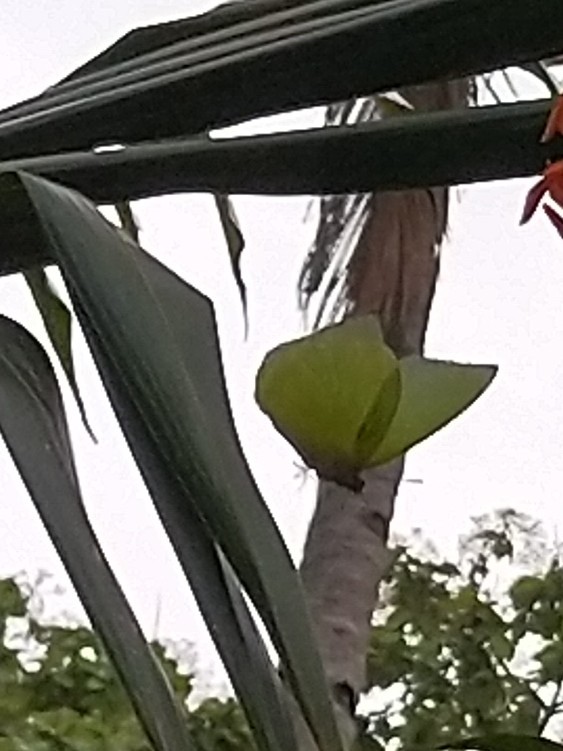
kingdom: Animalia
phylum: Arthropoda
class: Insecta
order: Lepidoptera
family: Pieridae
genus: Catopsilia
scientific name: Catopsilia pomona
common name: Common emigrant
